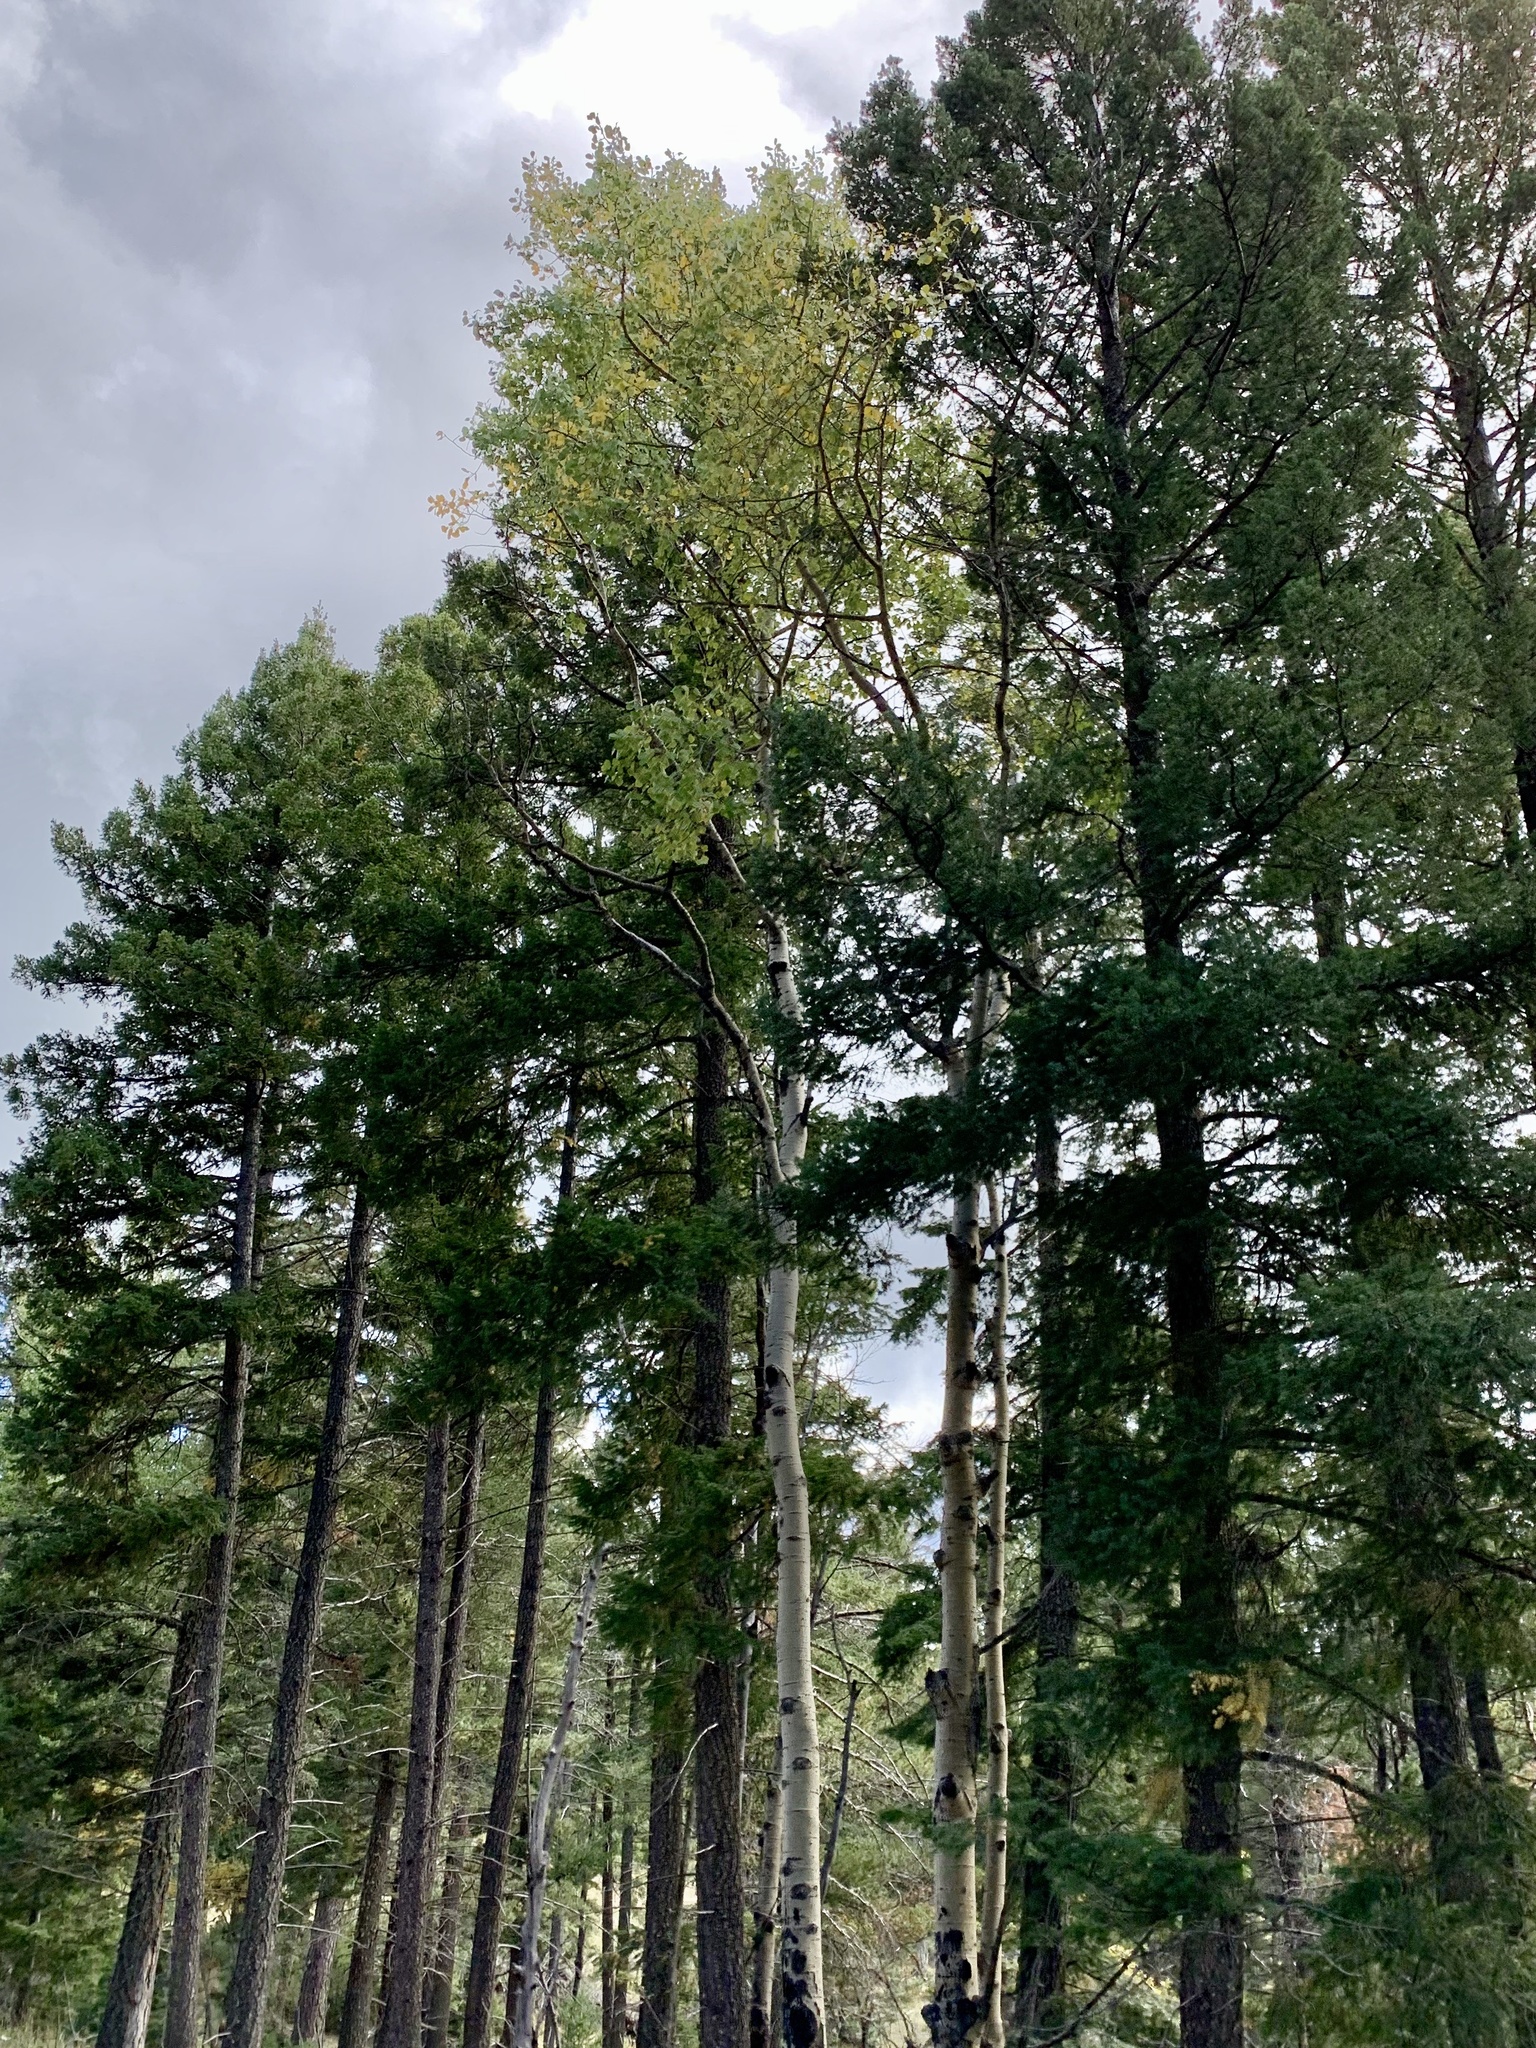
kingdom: Plantae
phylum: Tracheophyta
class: Magnoliopsida
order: Malpighiales
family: Salicaceae
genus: Populus
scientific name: Populus tremuloides
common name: Quaking aspen
